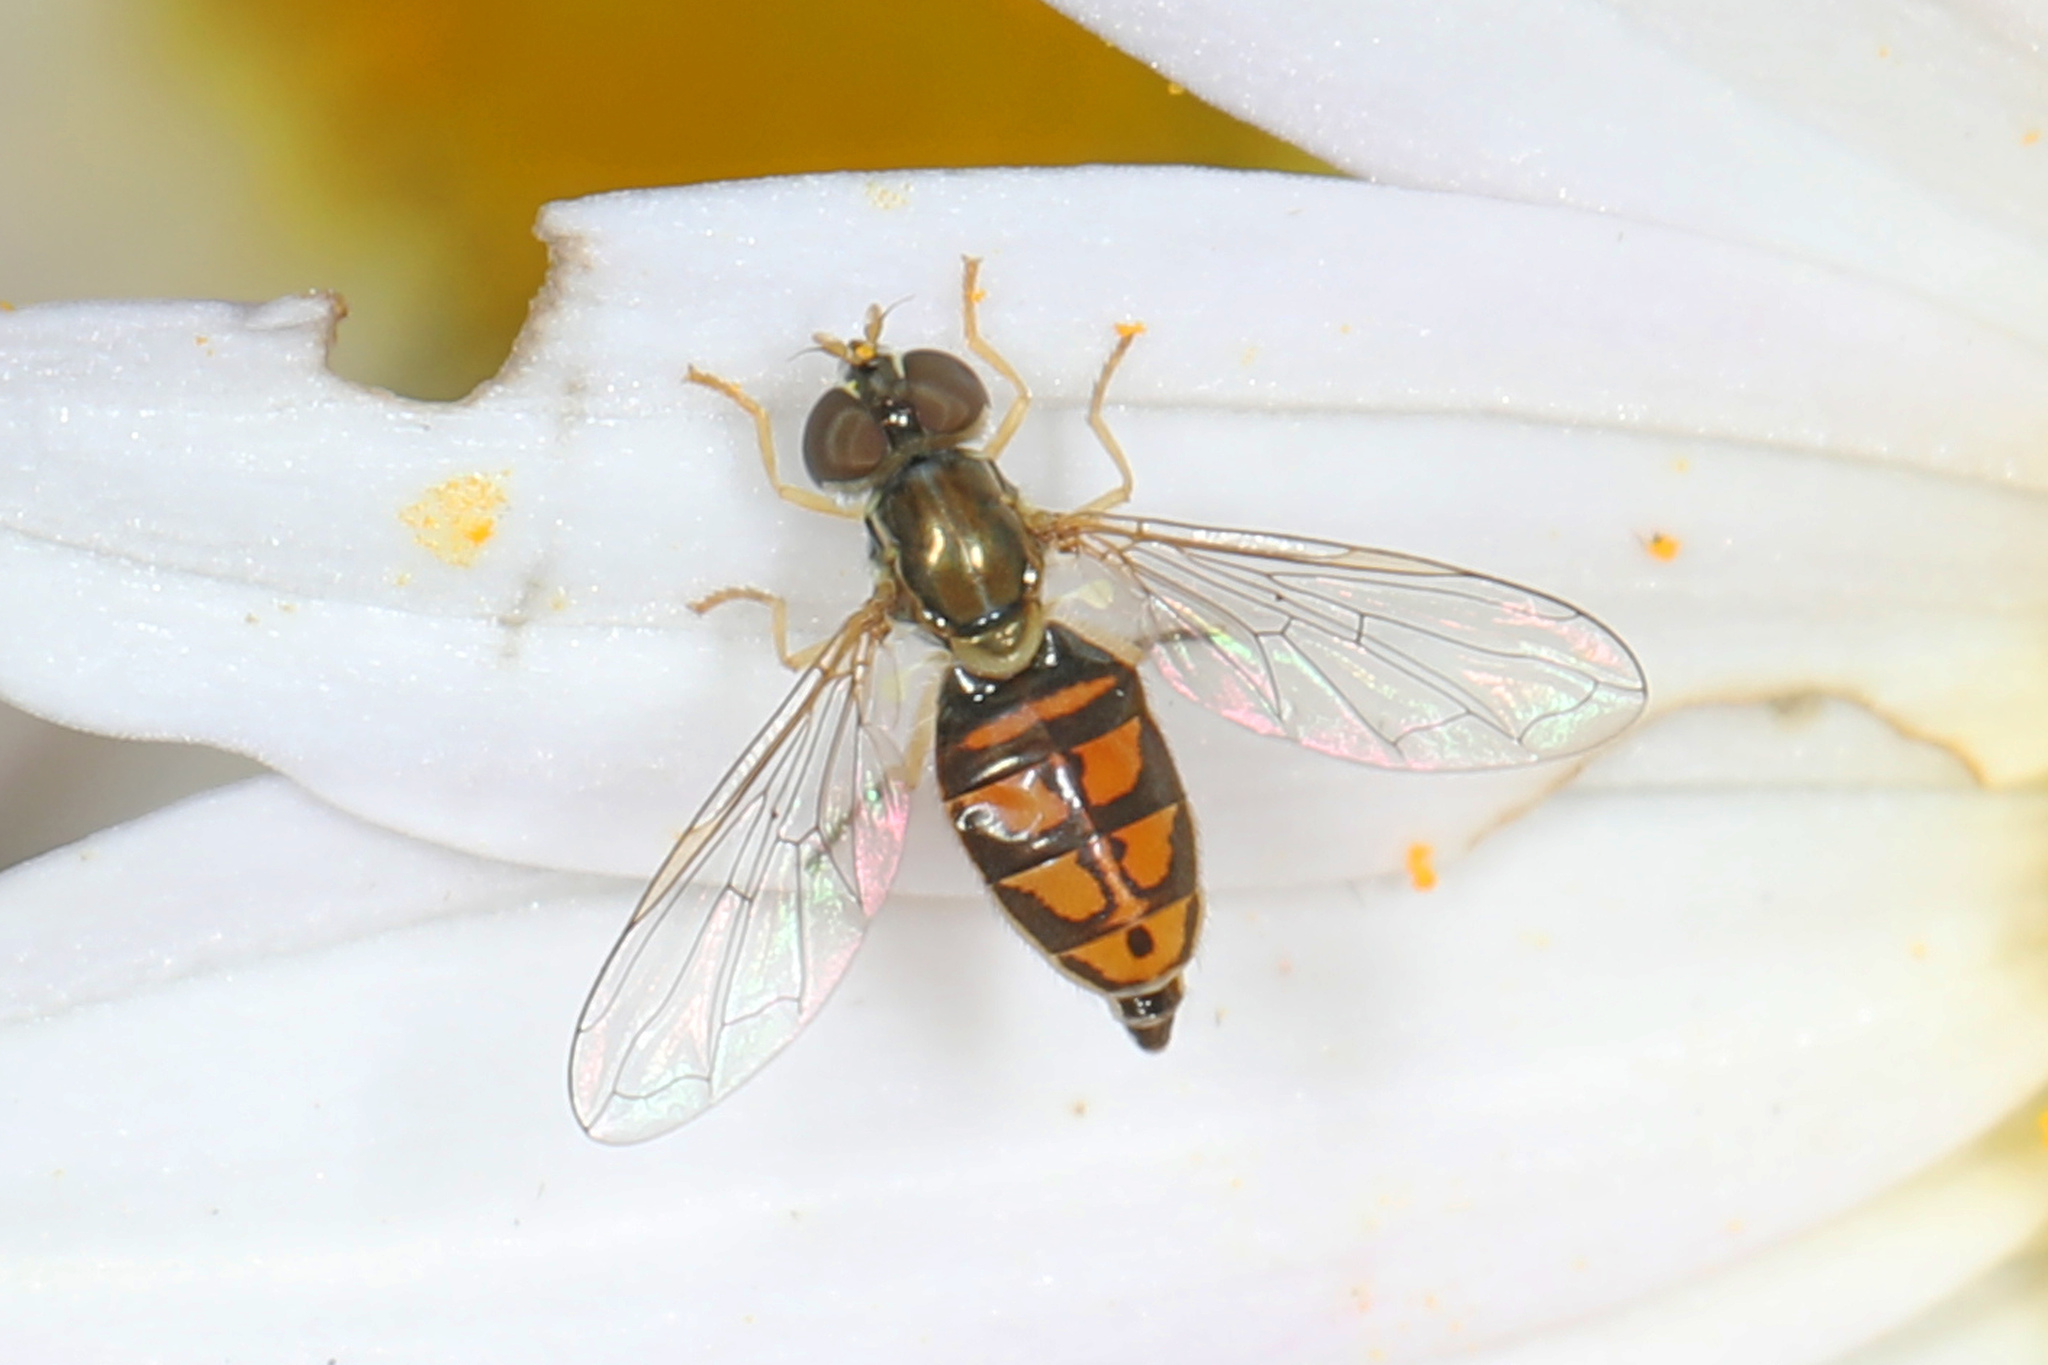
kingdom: Animalia
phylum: Arthropoda
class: Insecta
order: Diptera
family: Syrphidae
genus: Toxomerus
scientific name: Toxomerus marginatus
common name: Syrphid fly
